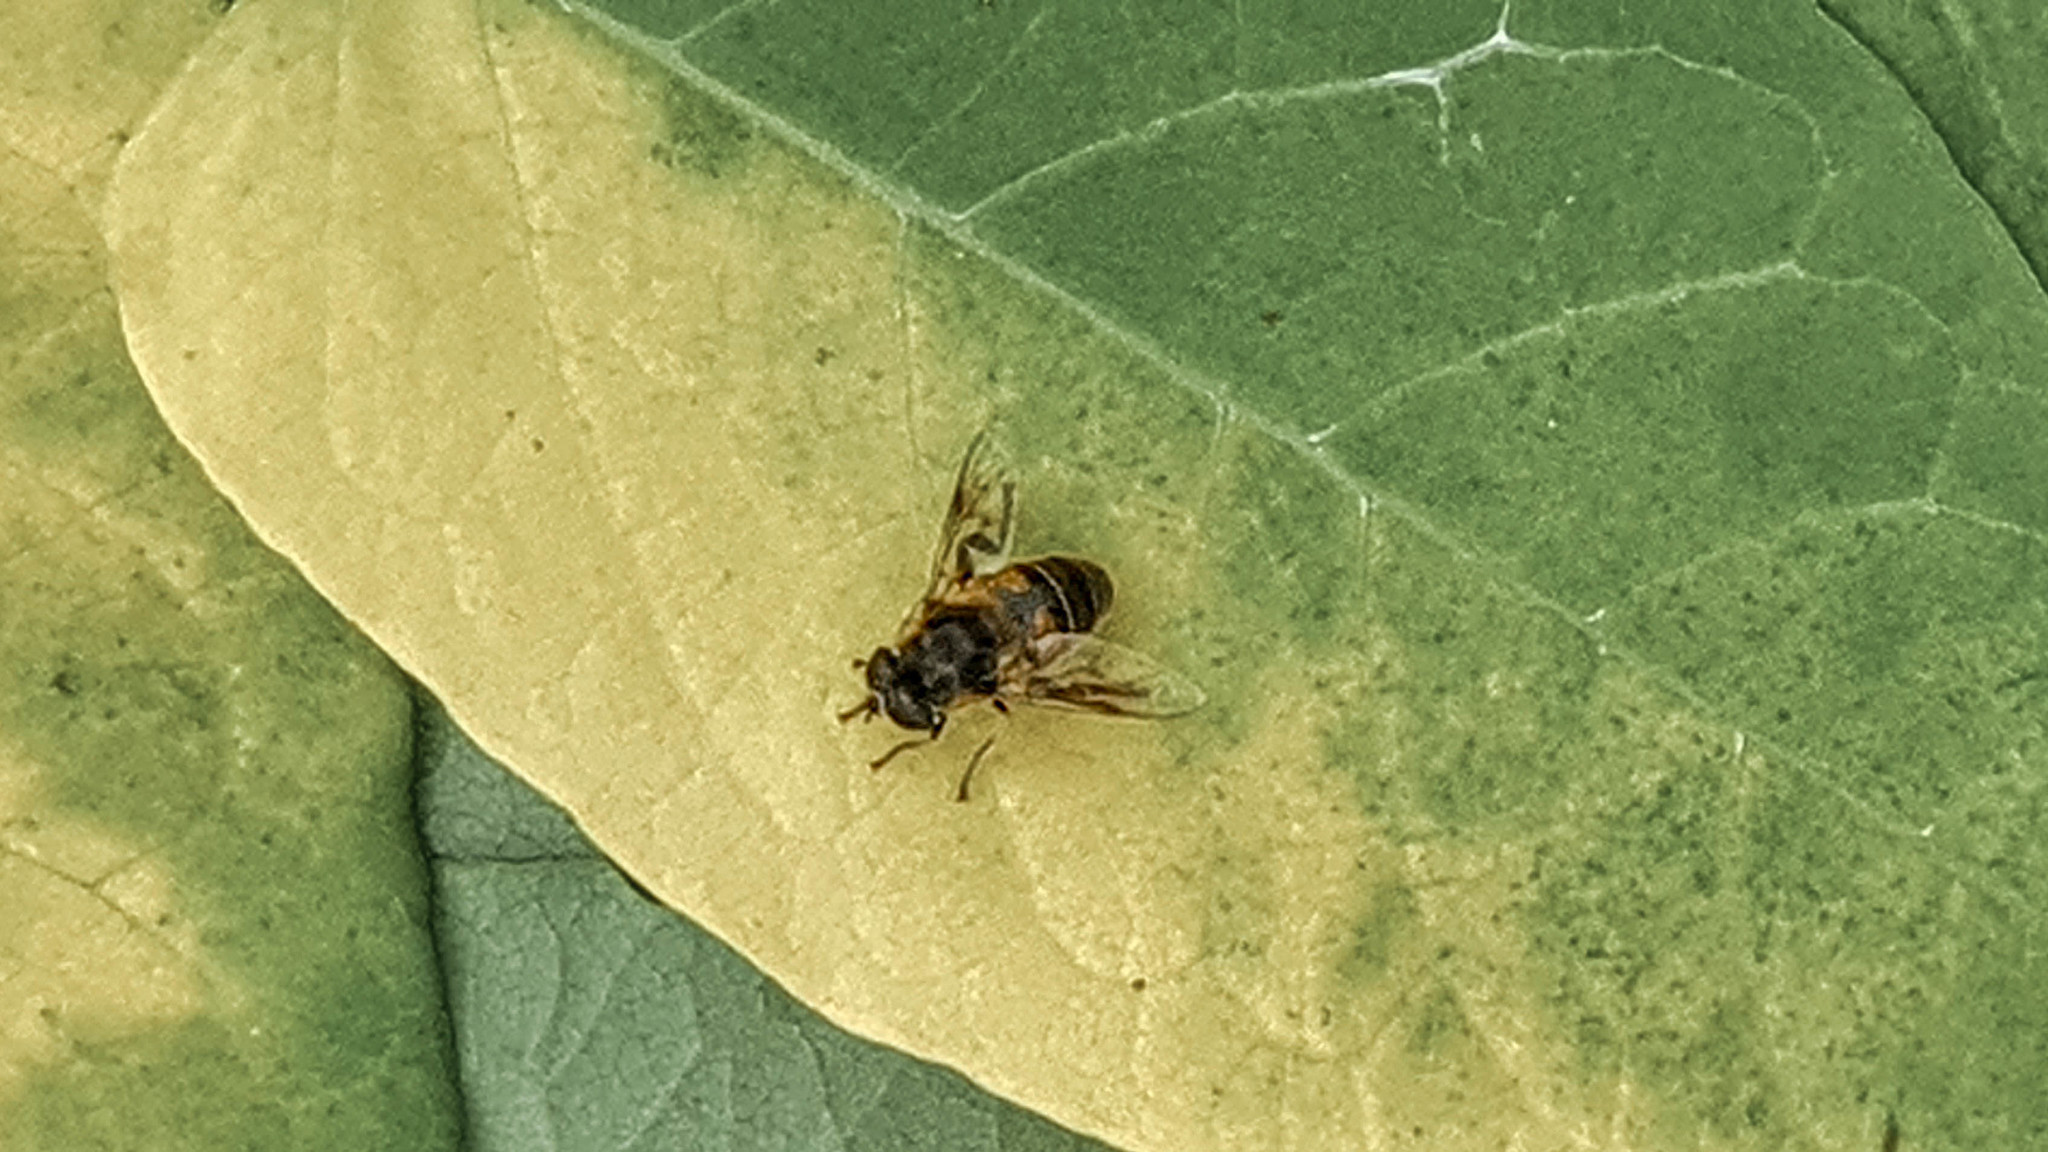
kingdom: Animalia
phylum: Arthropoda
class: Insecta
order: Diptera
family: Syrphidae
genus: Eristalis
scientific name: Eristalis tenax
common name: Drone fly
